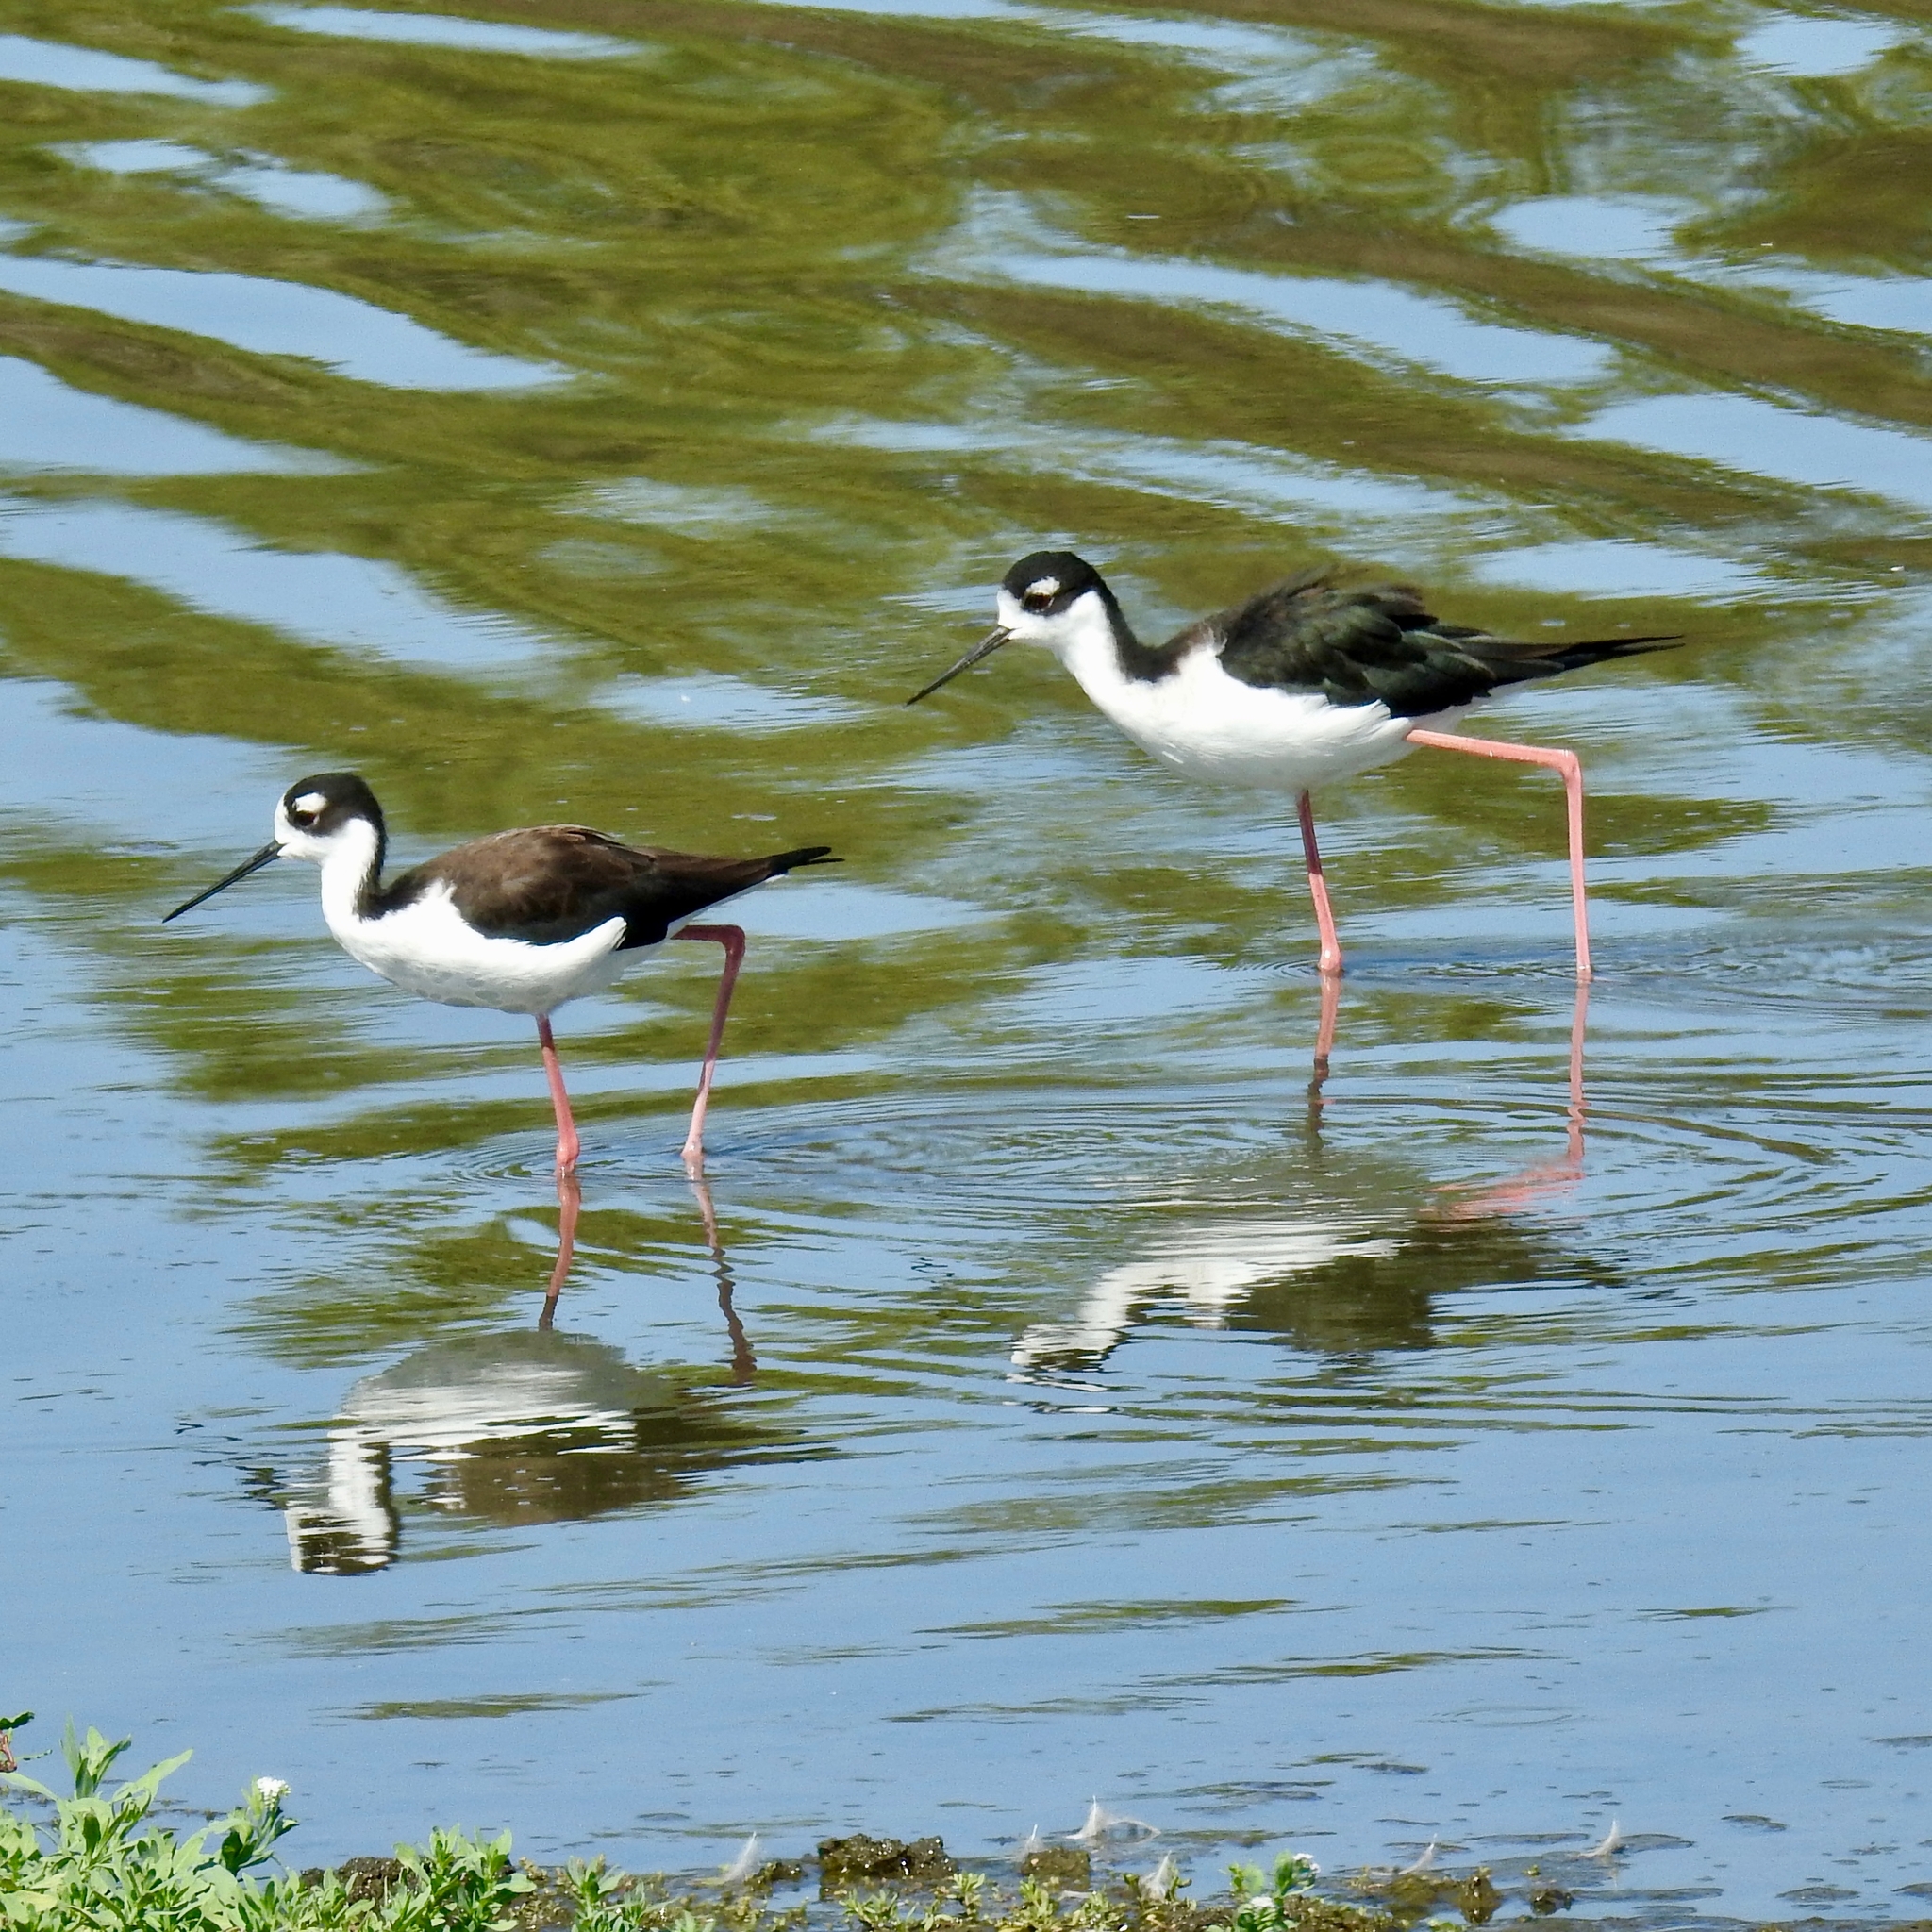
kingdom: Animalia
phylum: Chordata
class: Aves
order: Charadriiformes
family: Recurvirostridae
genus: Himantopus
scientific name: Himantopus mexicanus
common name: Black-necked stilt
